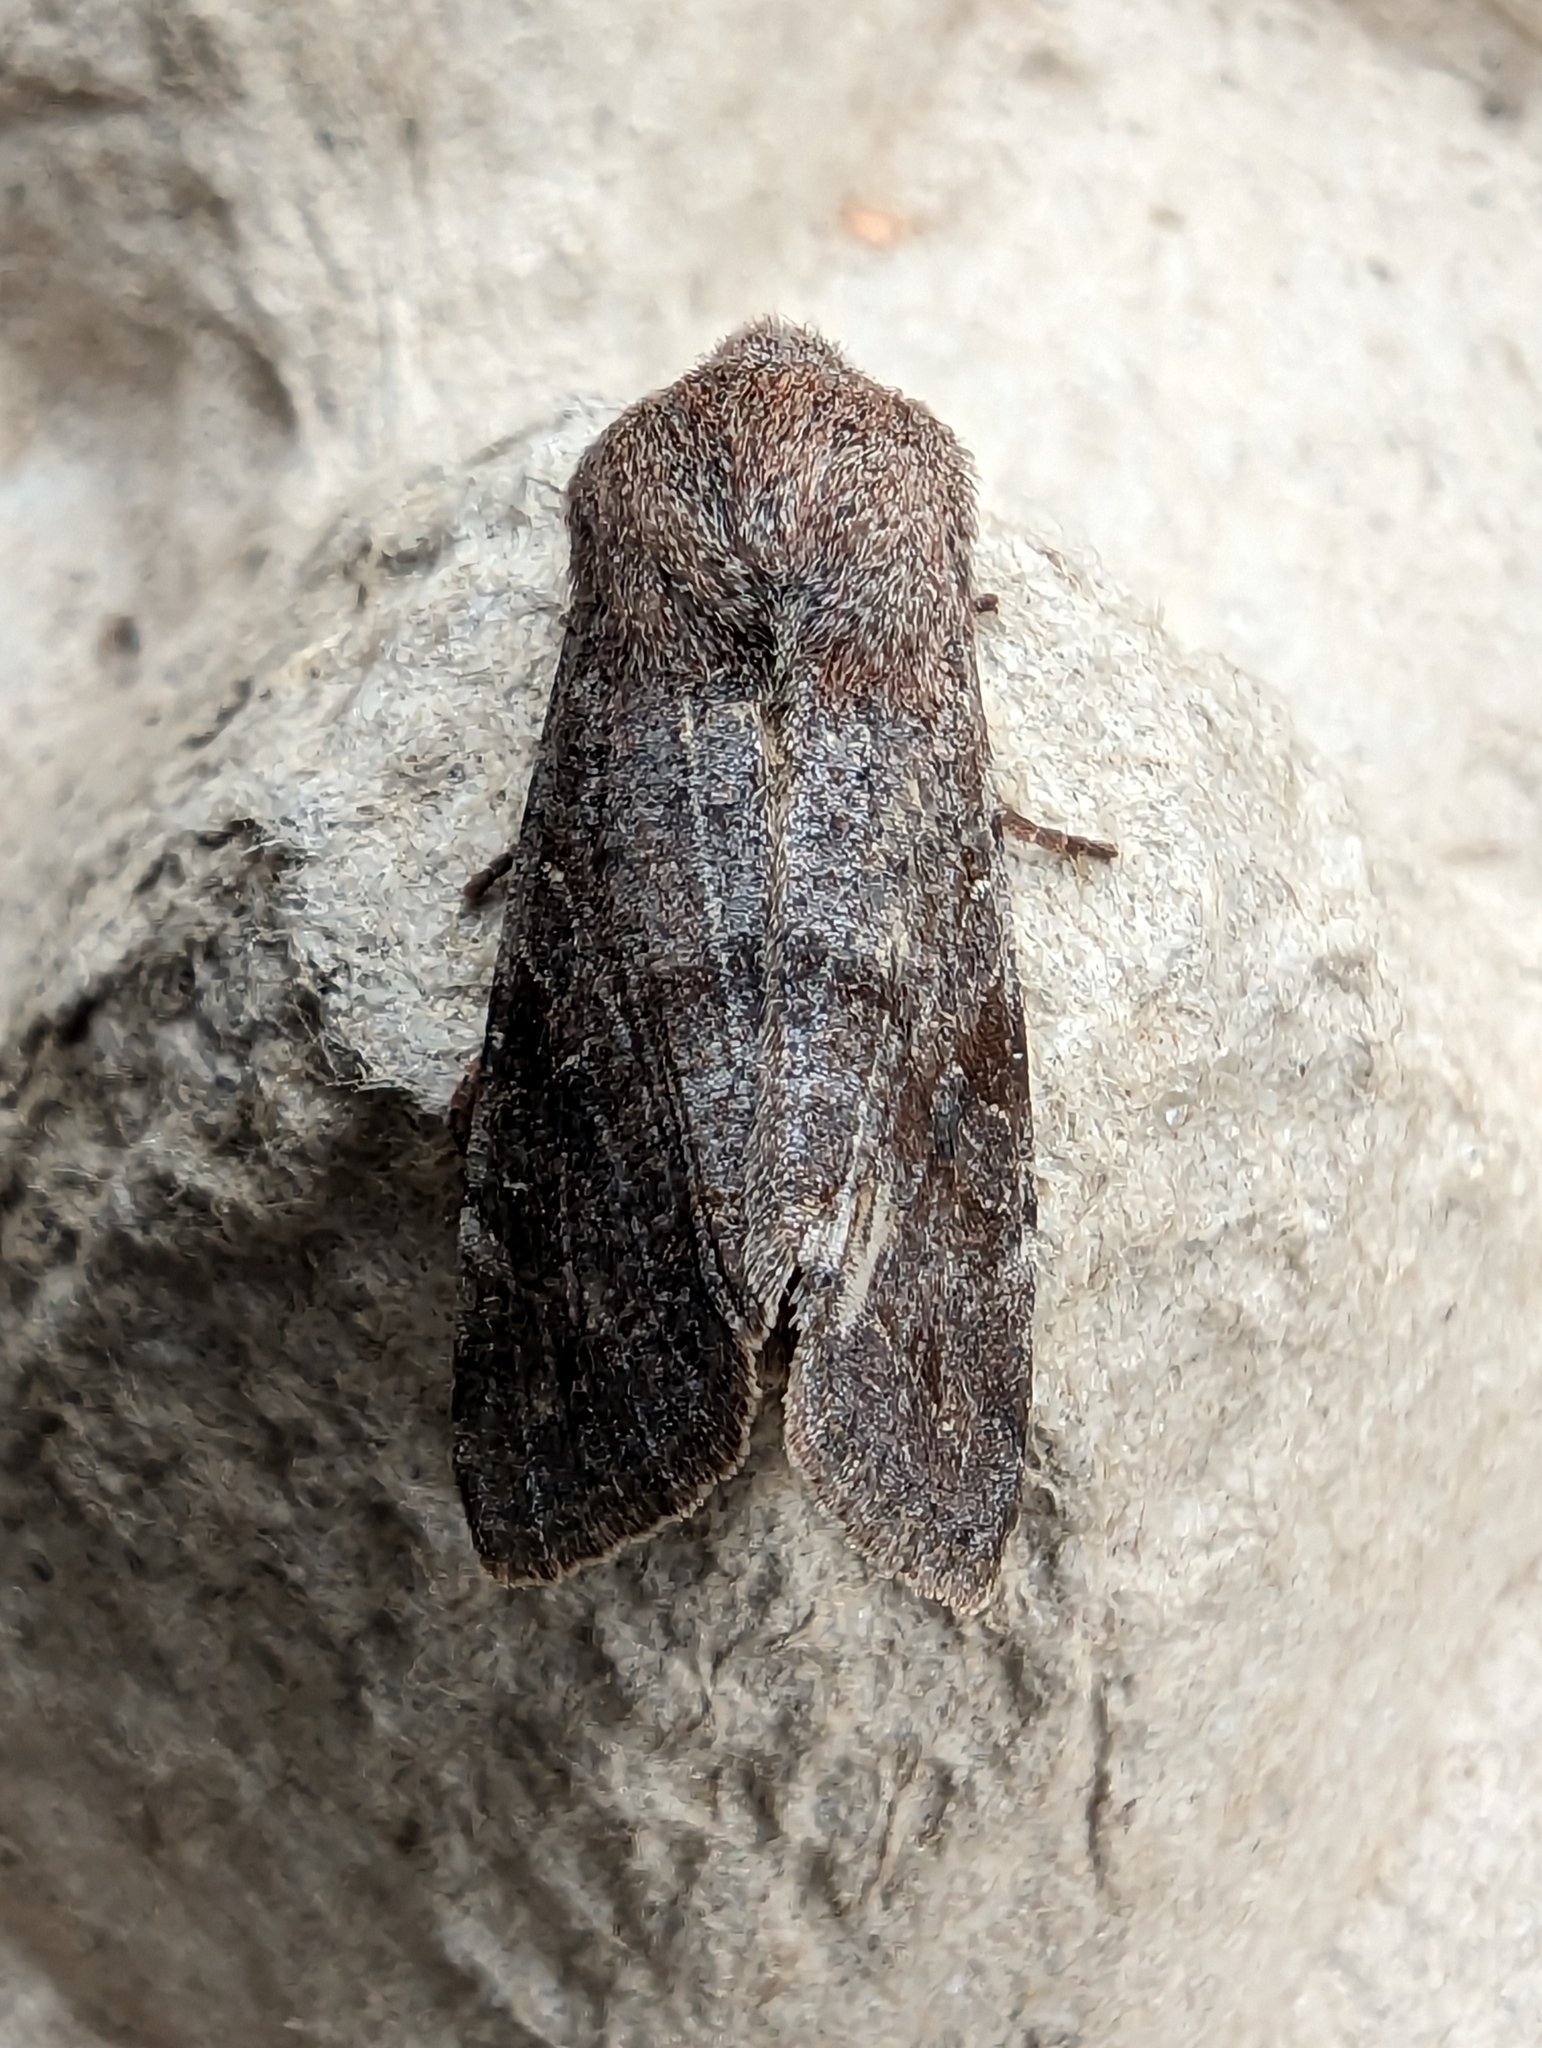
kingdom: Animalia
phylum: Arthropoda
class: Insecta
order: Lepidoptera
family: Noctuidae
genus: Orthosia
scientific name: Orthosia incerta
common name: Clouded drab
